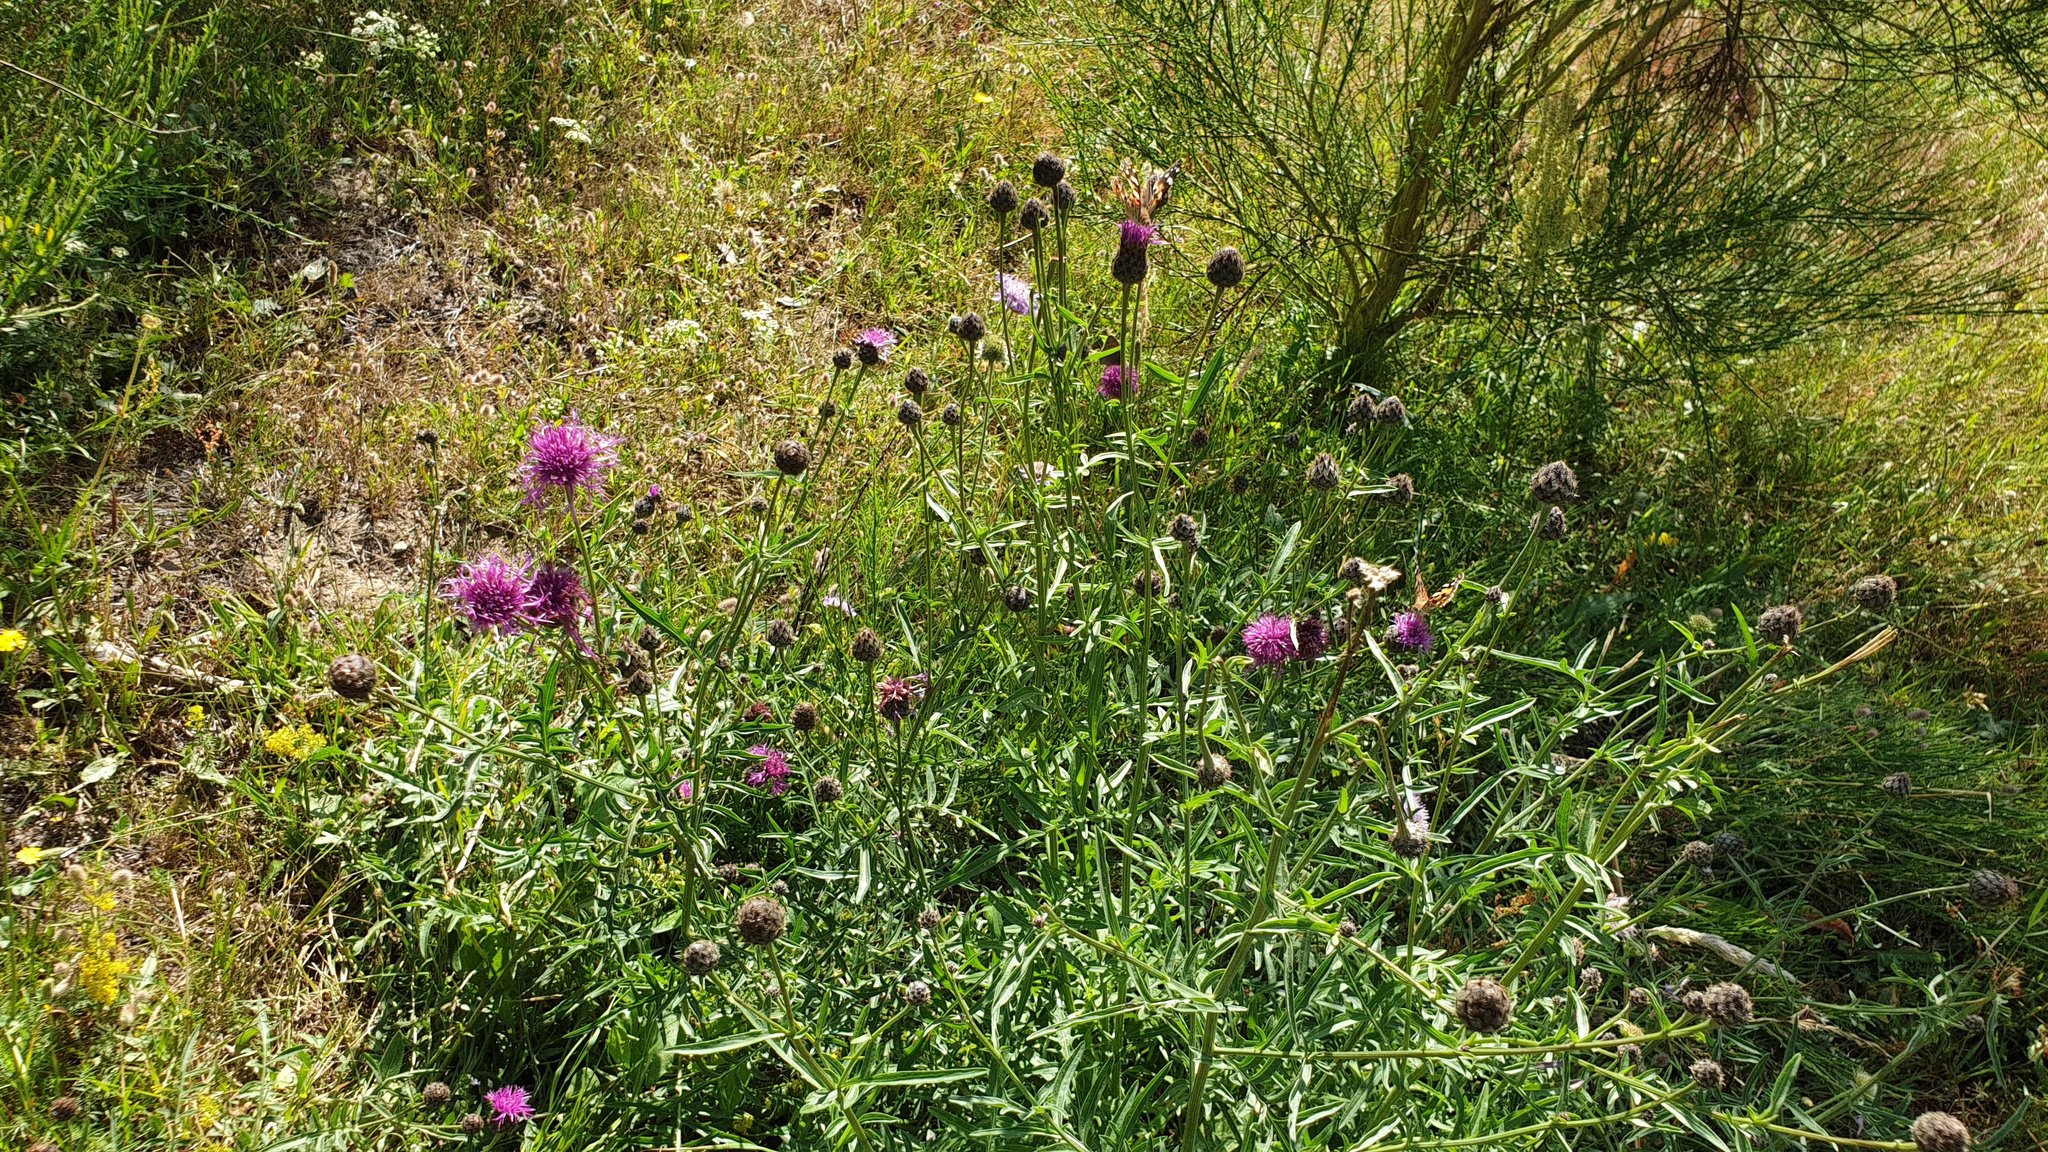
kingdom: Plantae
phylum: Tracheophyta
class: Magnoliopsida
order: Asterales
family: Asteraceae
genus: Centaurea
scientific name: Centaurea scabiosa
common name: Greater knapweed
